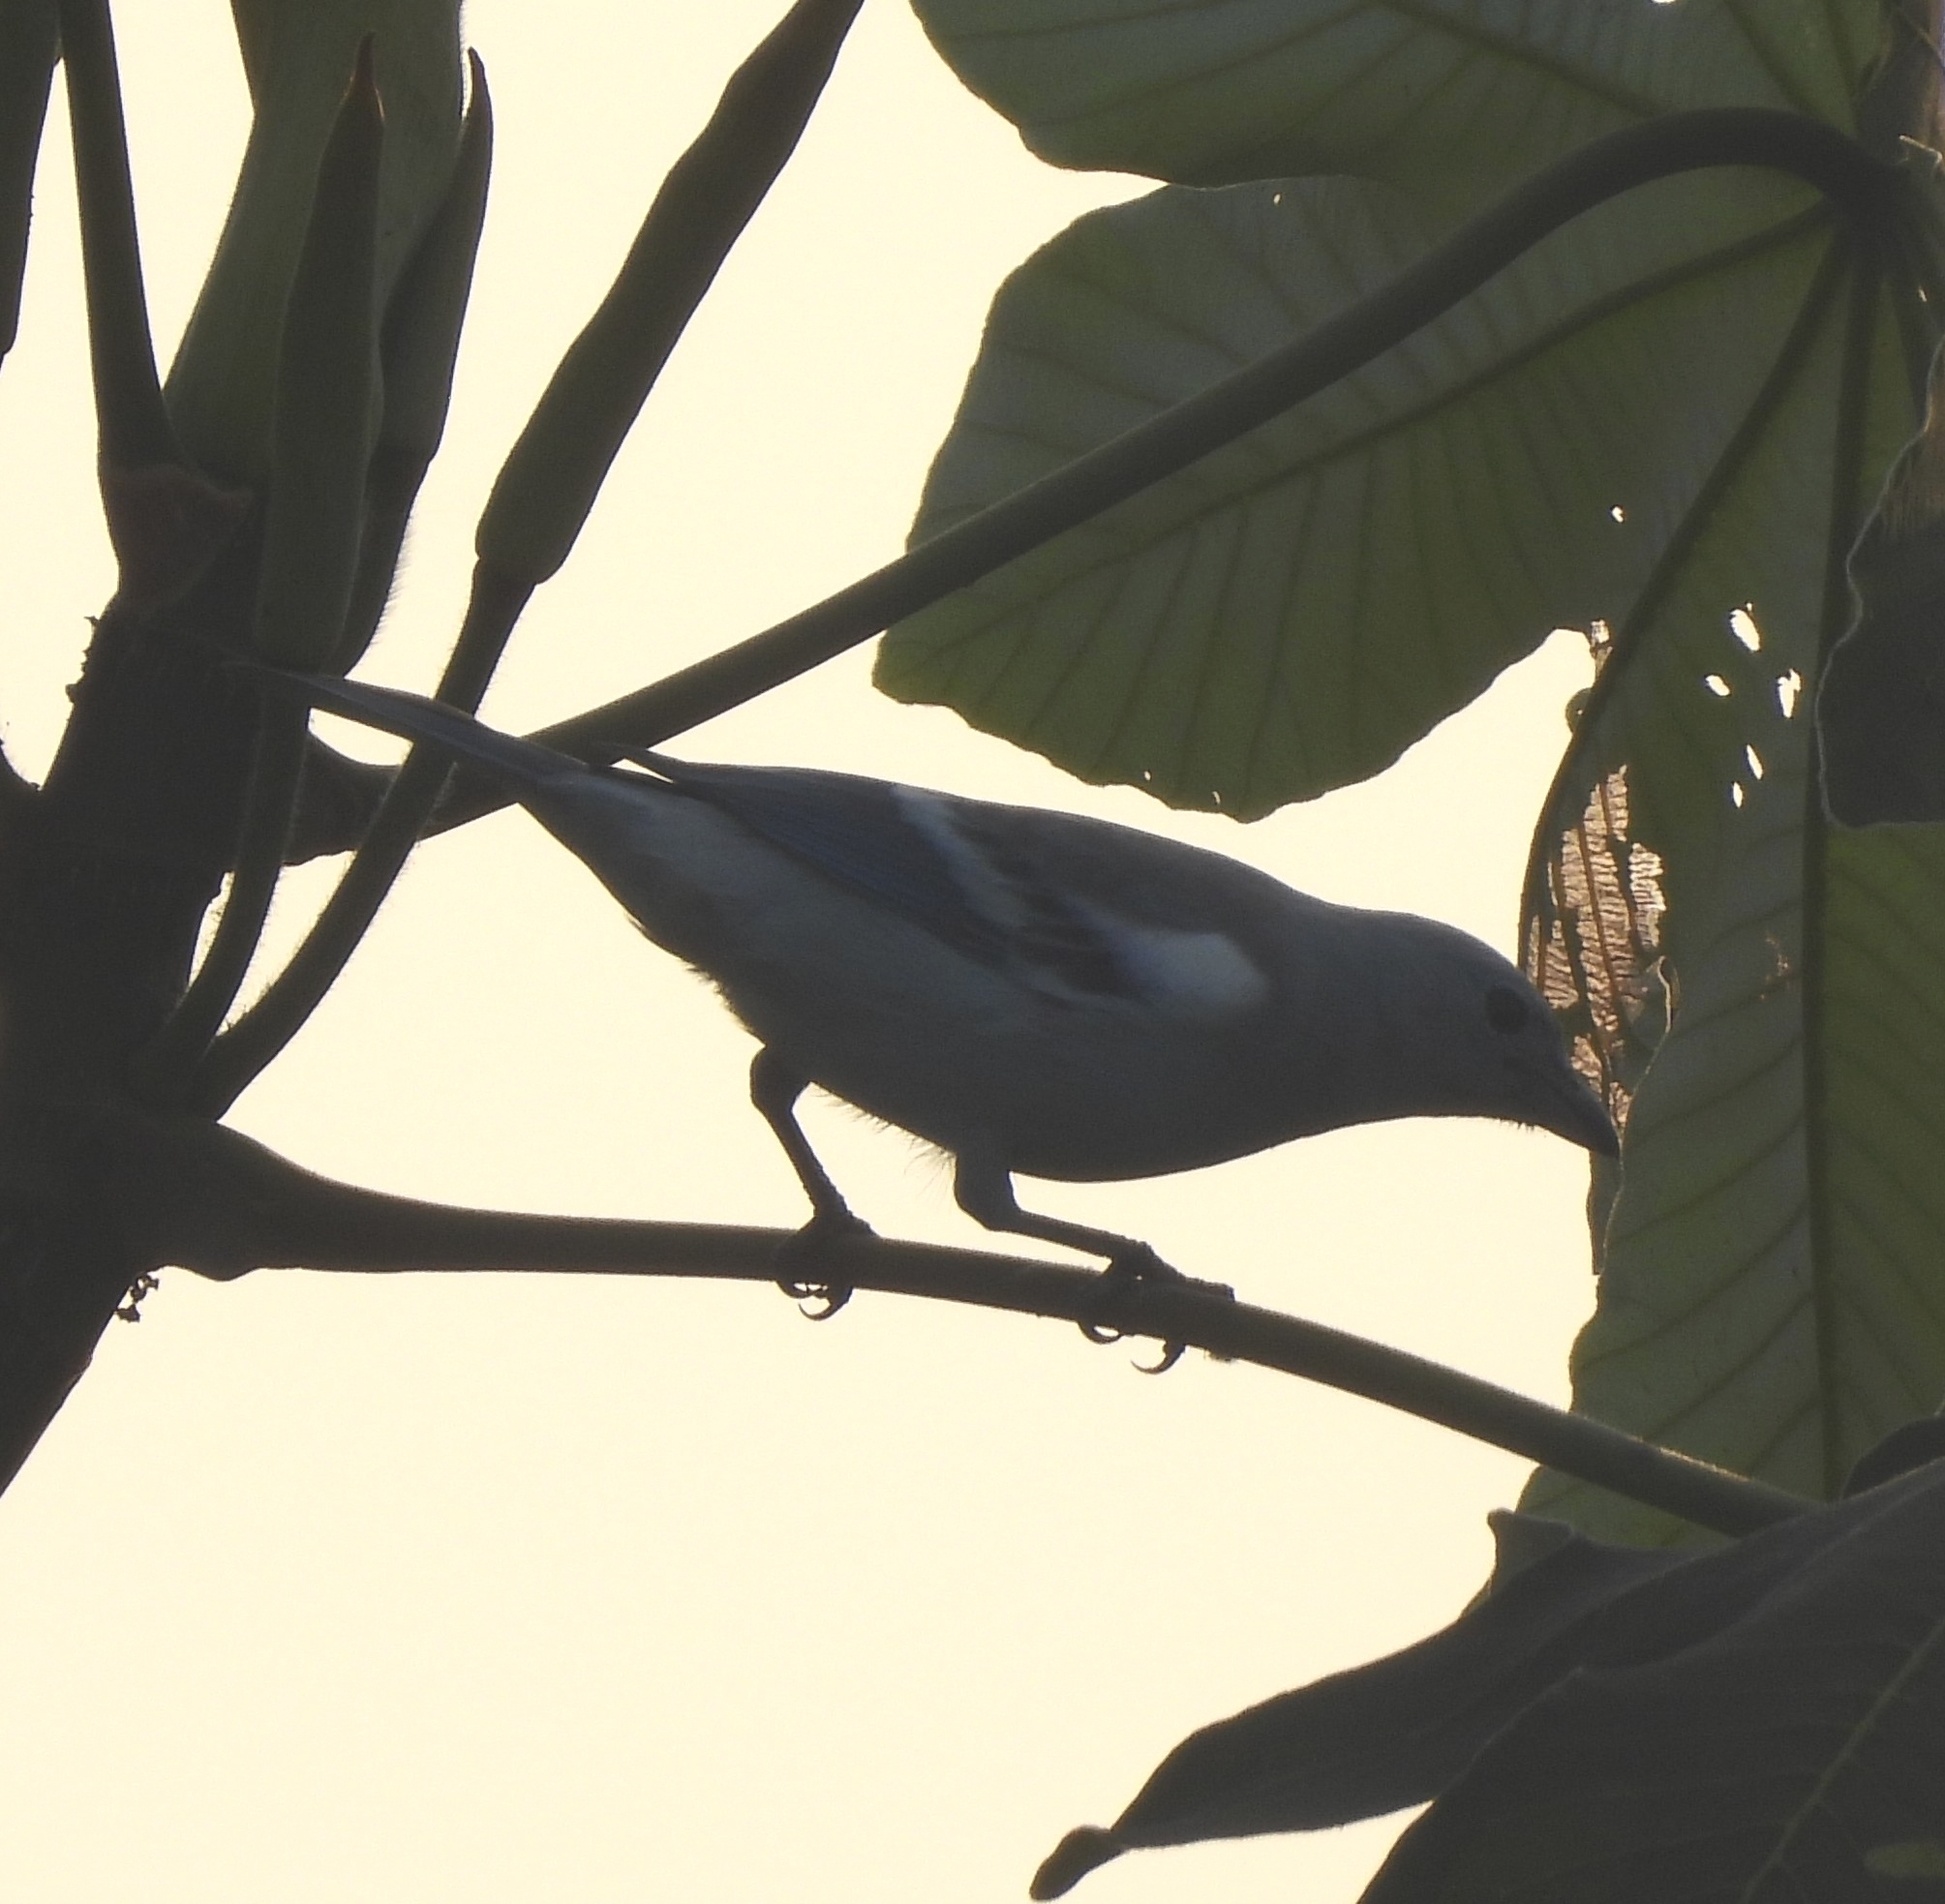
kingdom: Animalia
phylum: Chordata
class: Aves
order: Passeriformes
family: Thraupidae
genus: Thraupis
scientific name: Thraupis episcopus
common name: Blue-grey tanager
